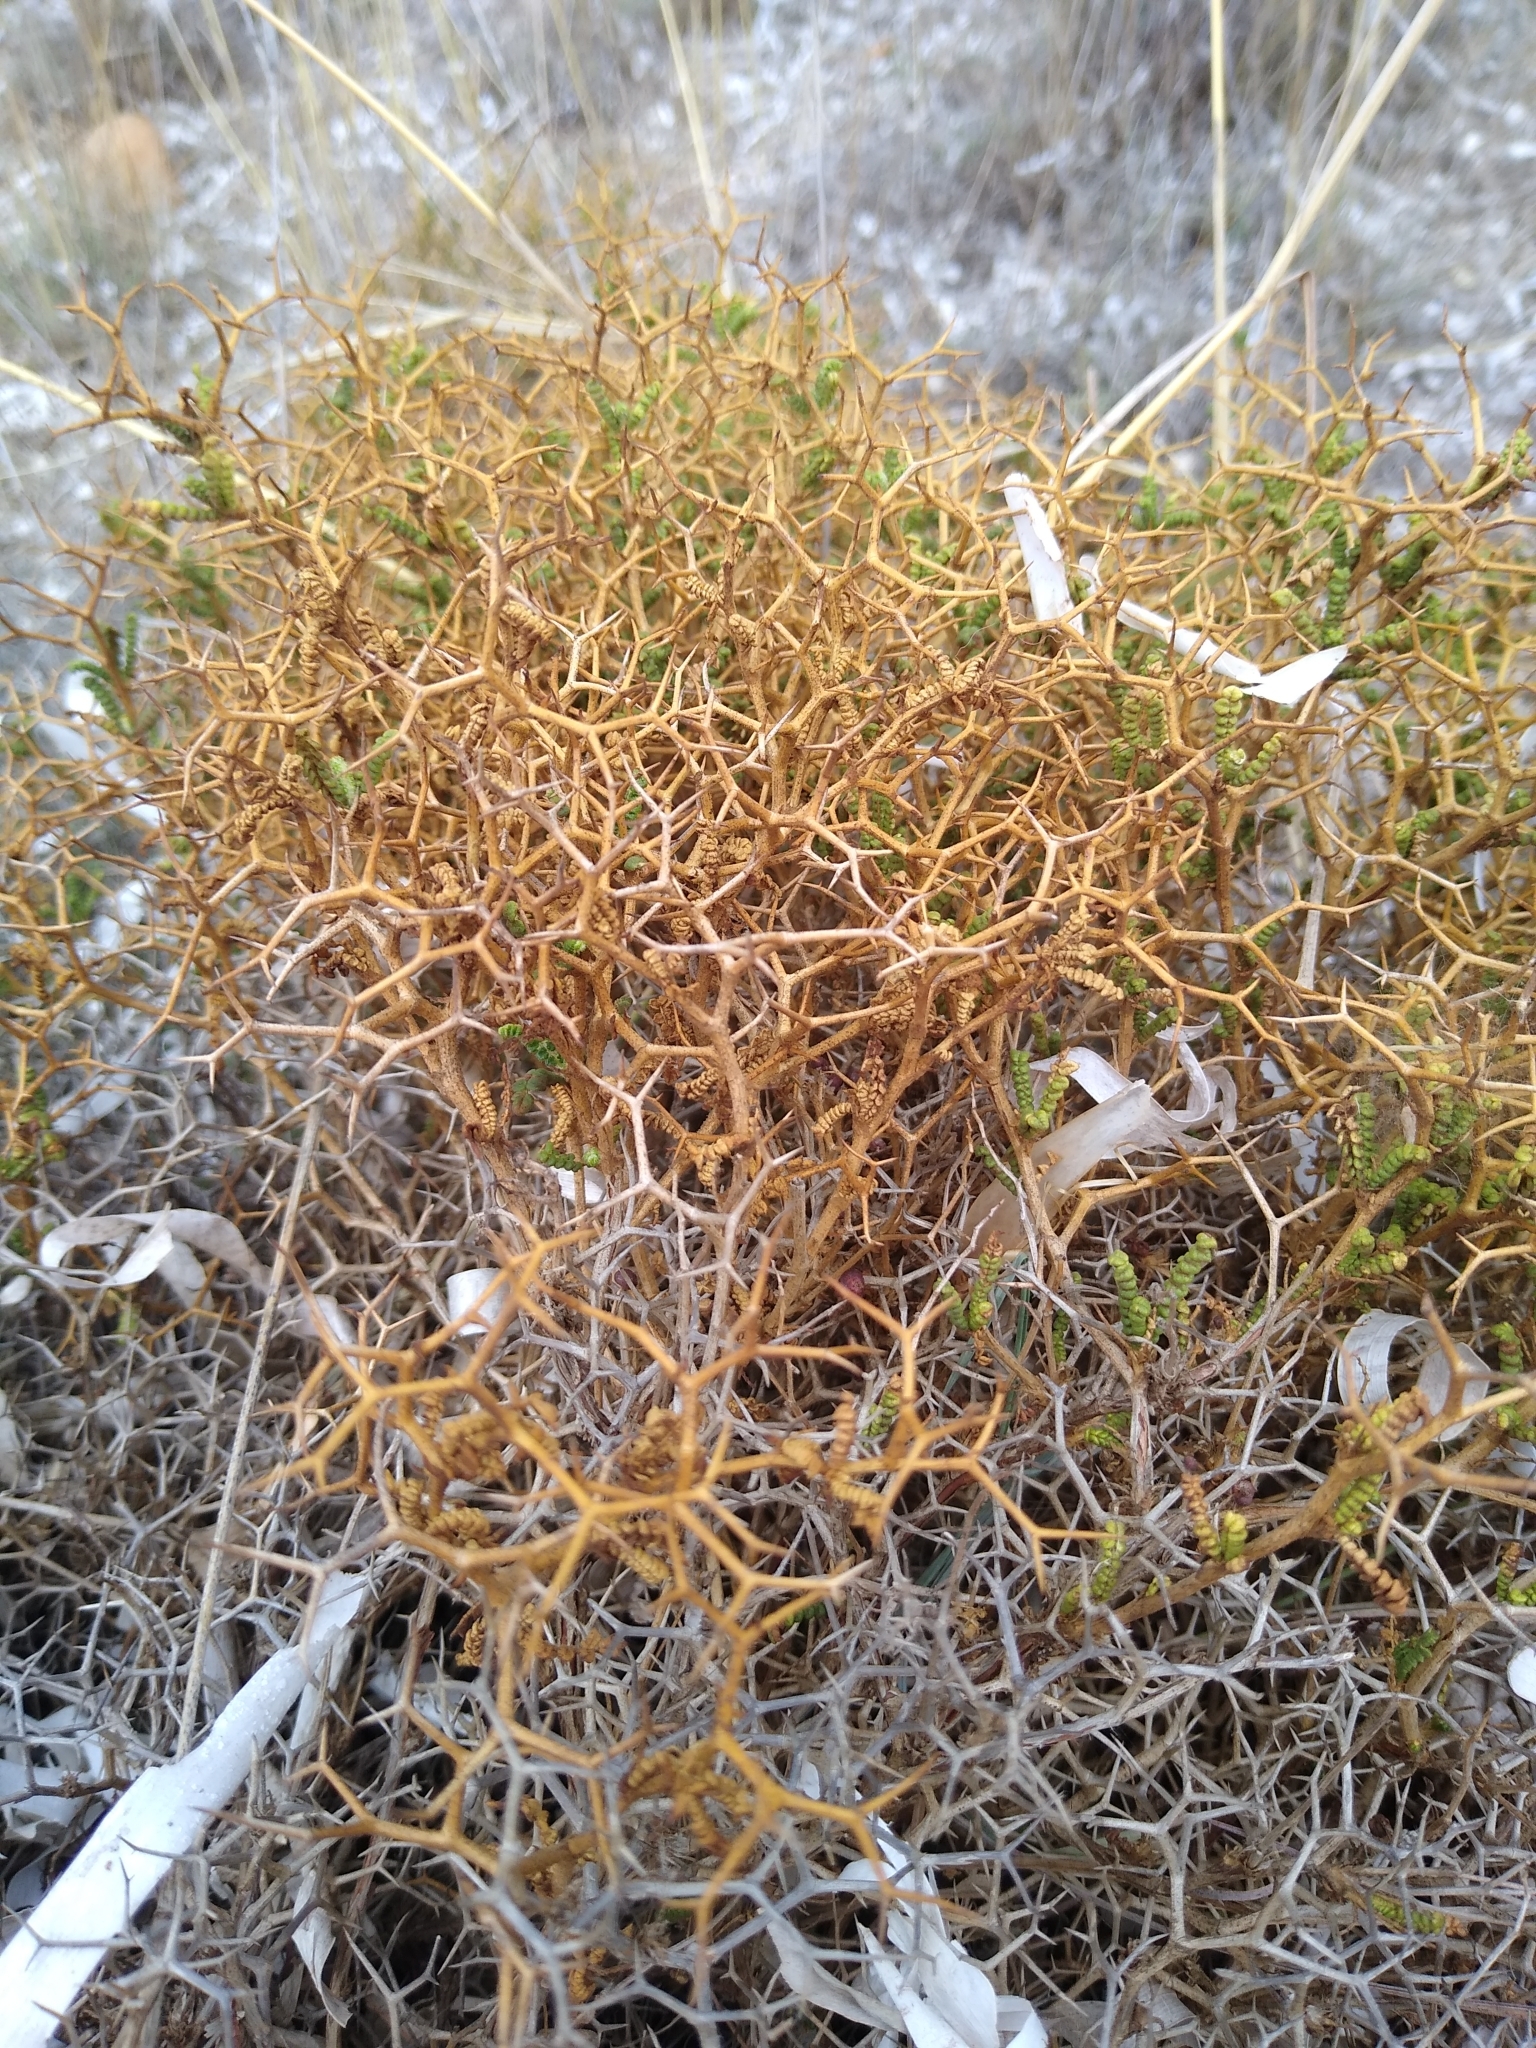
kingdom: Plantae
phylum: Tracheophyta
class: Magnoliopsida
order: Rosales
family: Rosaceae
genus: Sarcopoterium
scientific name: Sarcopoterium spinosum
